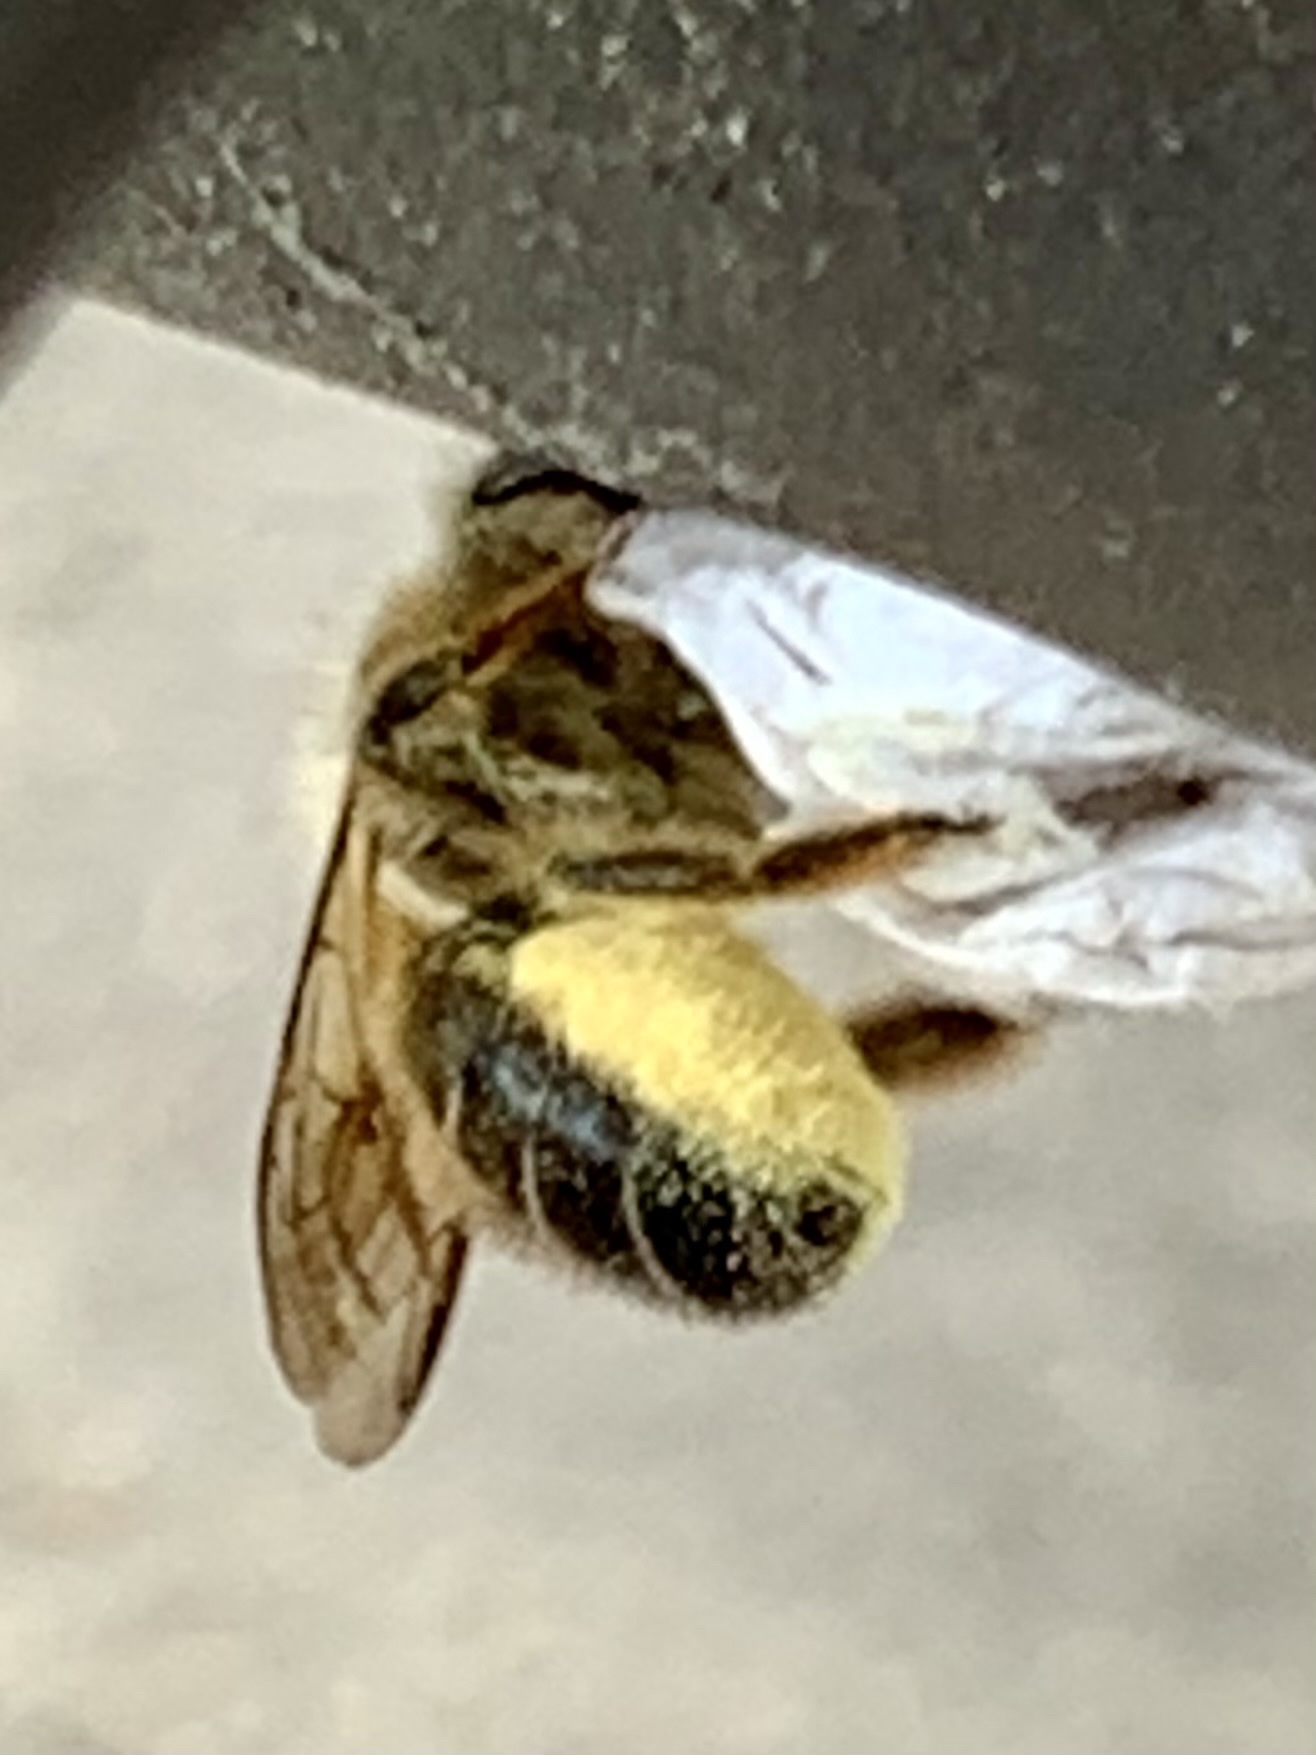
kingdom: Animalia
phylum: Arthropoda
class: Insecta
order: Hymenoptera
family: Megachilidae
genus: Osmia
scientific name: Osmia taurus
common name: Taurus mason bee
